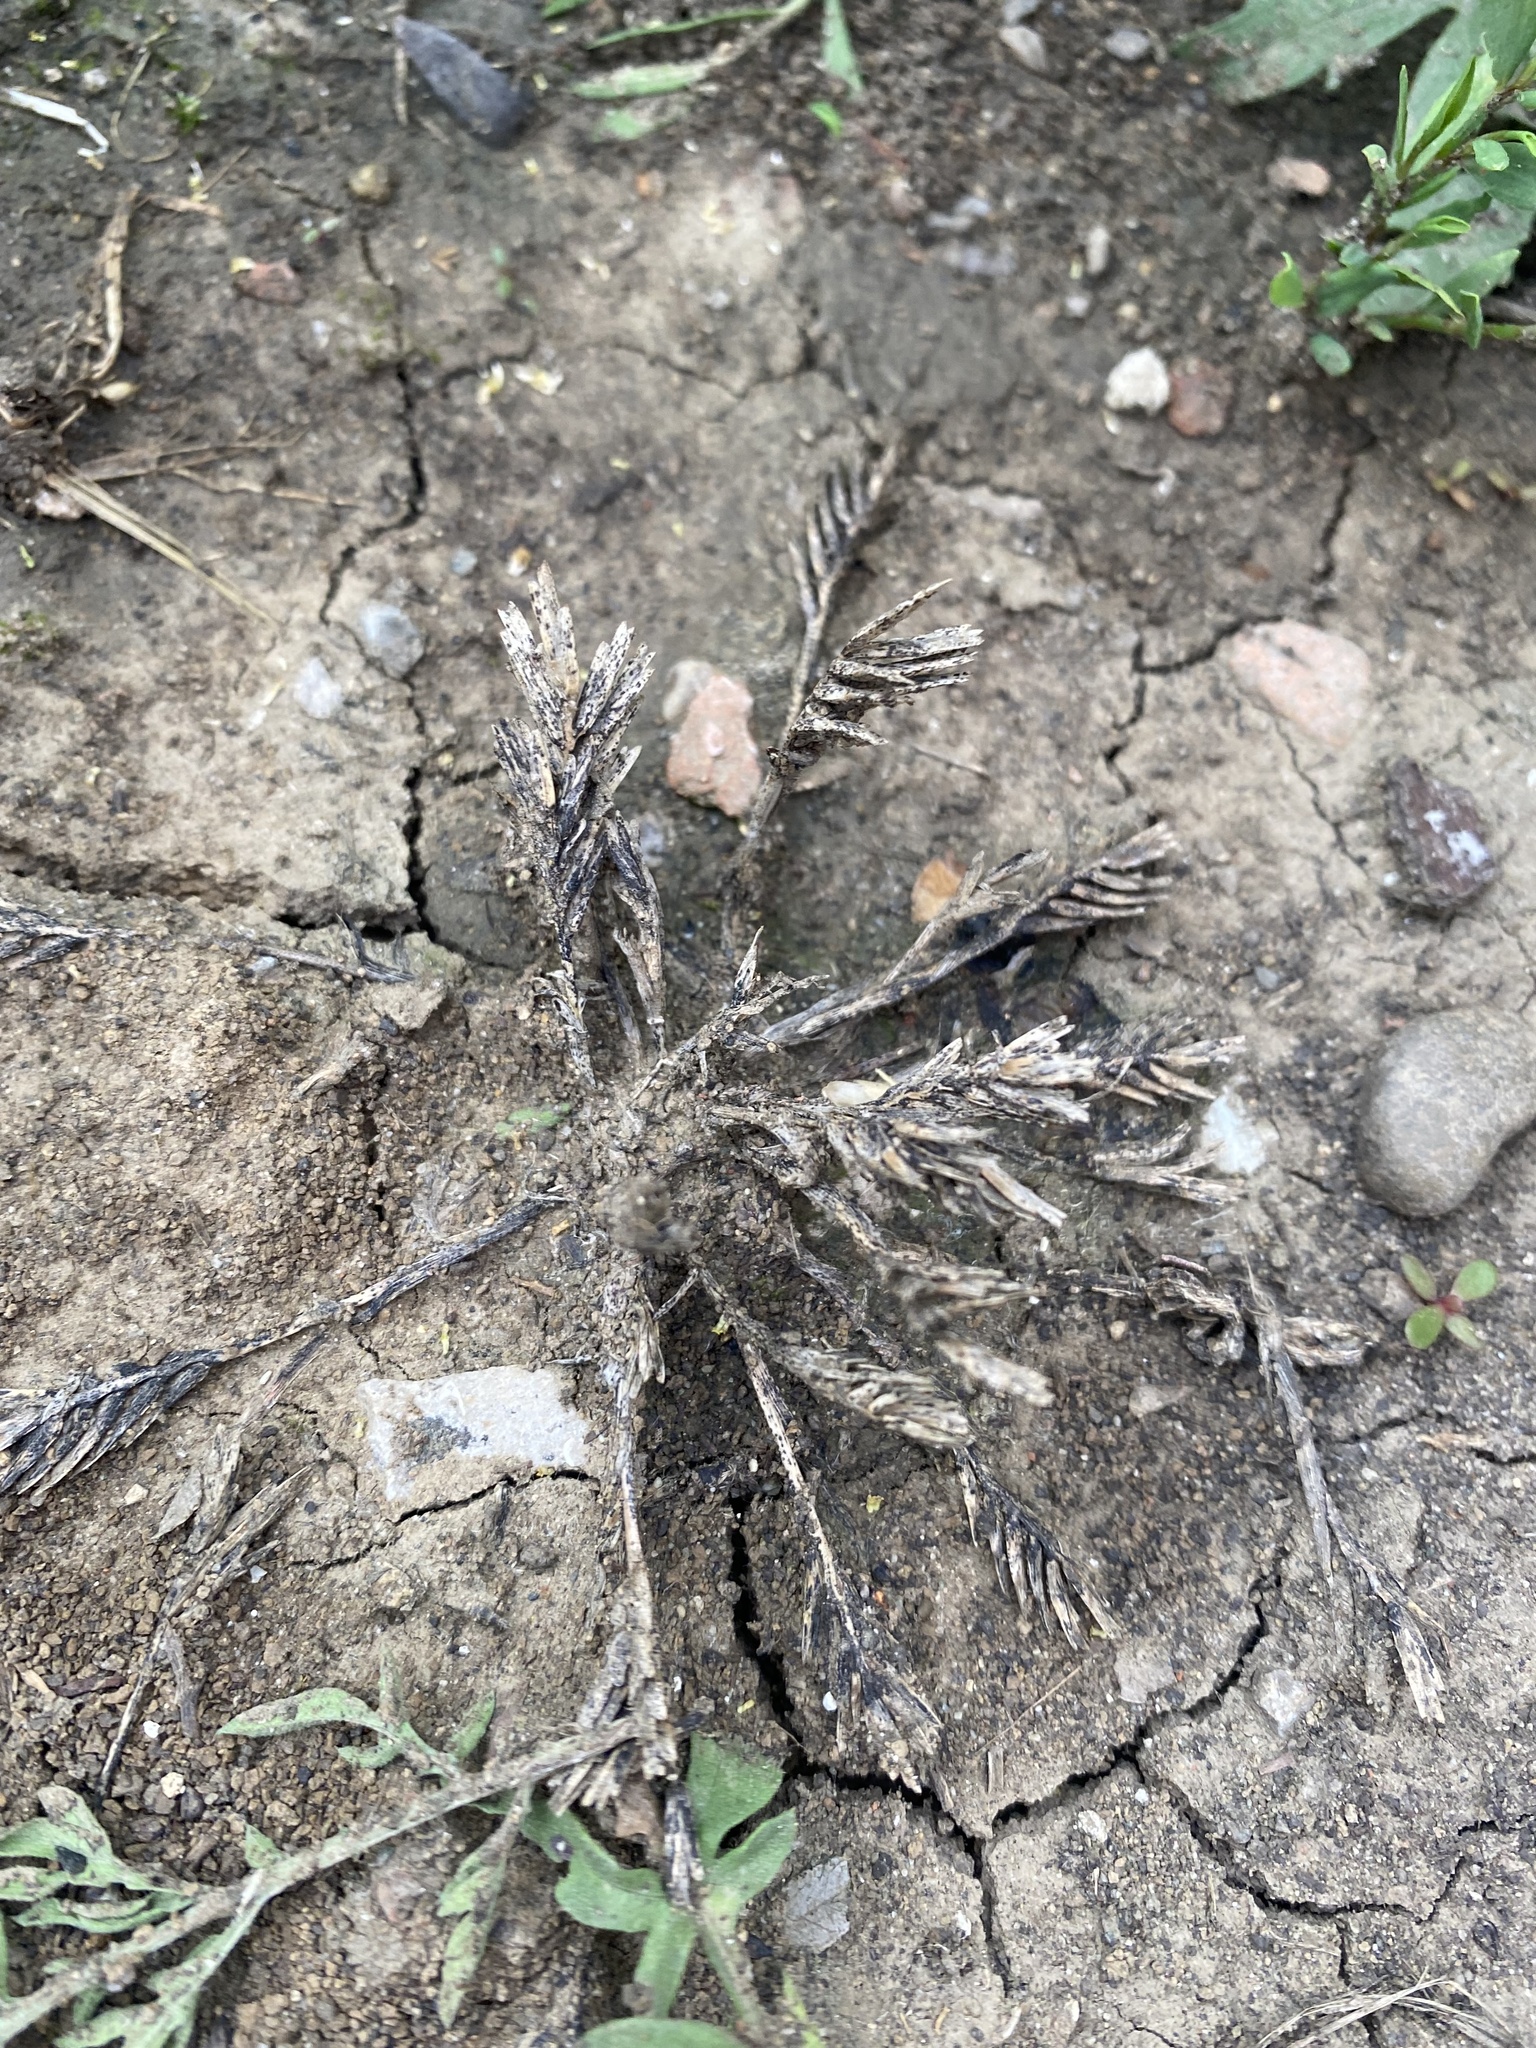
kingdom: Plantae
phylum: Tracheophyta
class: Liliopsida
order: Poales
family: Poaceae
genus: Sclerochloa
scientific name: Sclerochloa dura
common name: Common hardgrass
